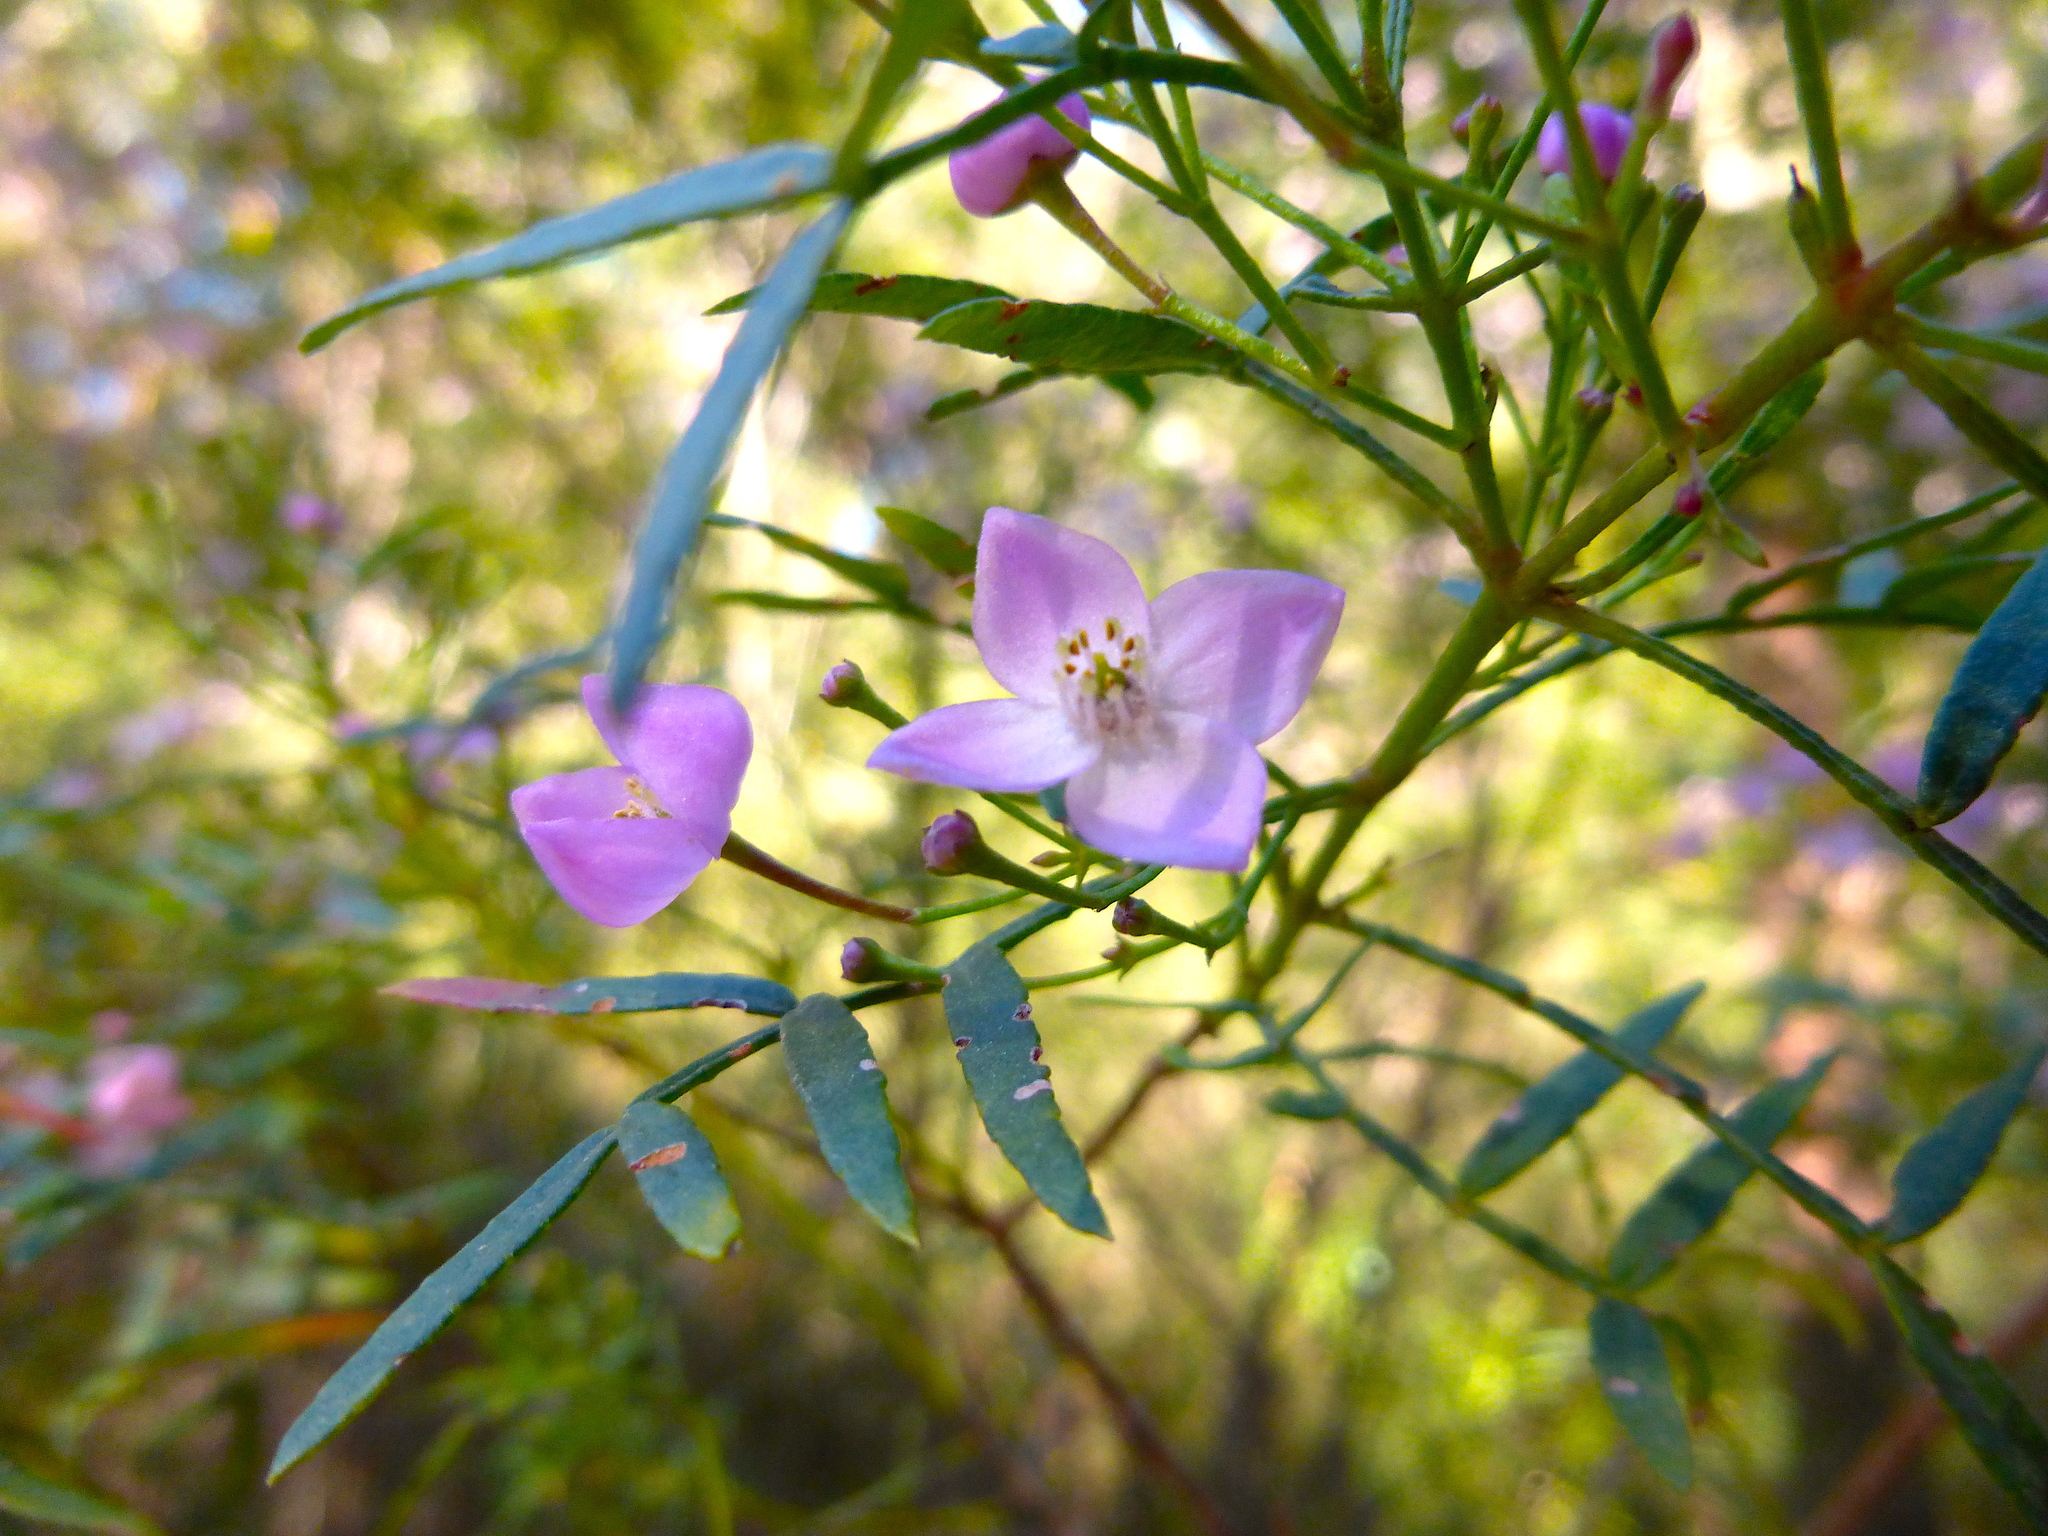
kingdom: Plantae
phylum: Tracheophyta
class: Magnoliopsida
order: Sapindales
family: Rutaceae
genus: Boronia
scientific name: Boronia thujona
